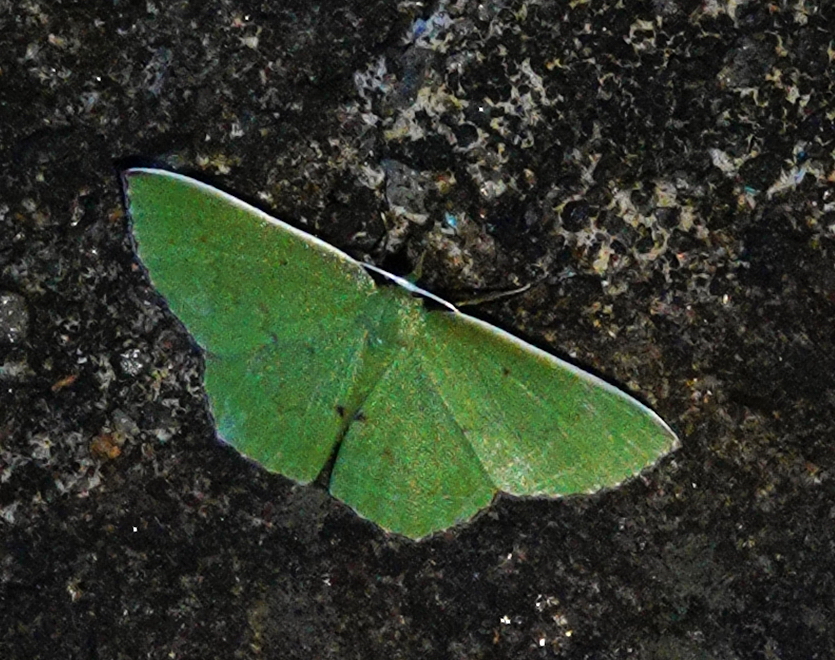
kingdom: Animalia
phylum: Arthropoda
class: Insecta
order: Lepidoptera
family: Geometridae
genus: Oenospila
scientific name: Oenospila flavifusata
